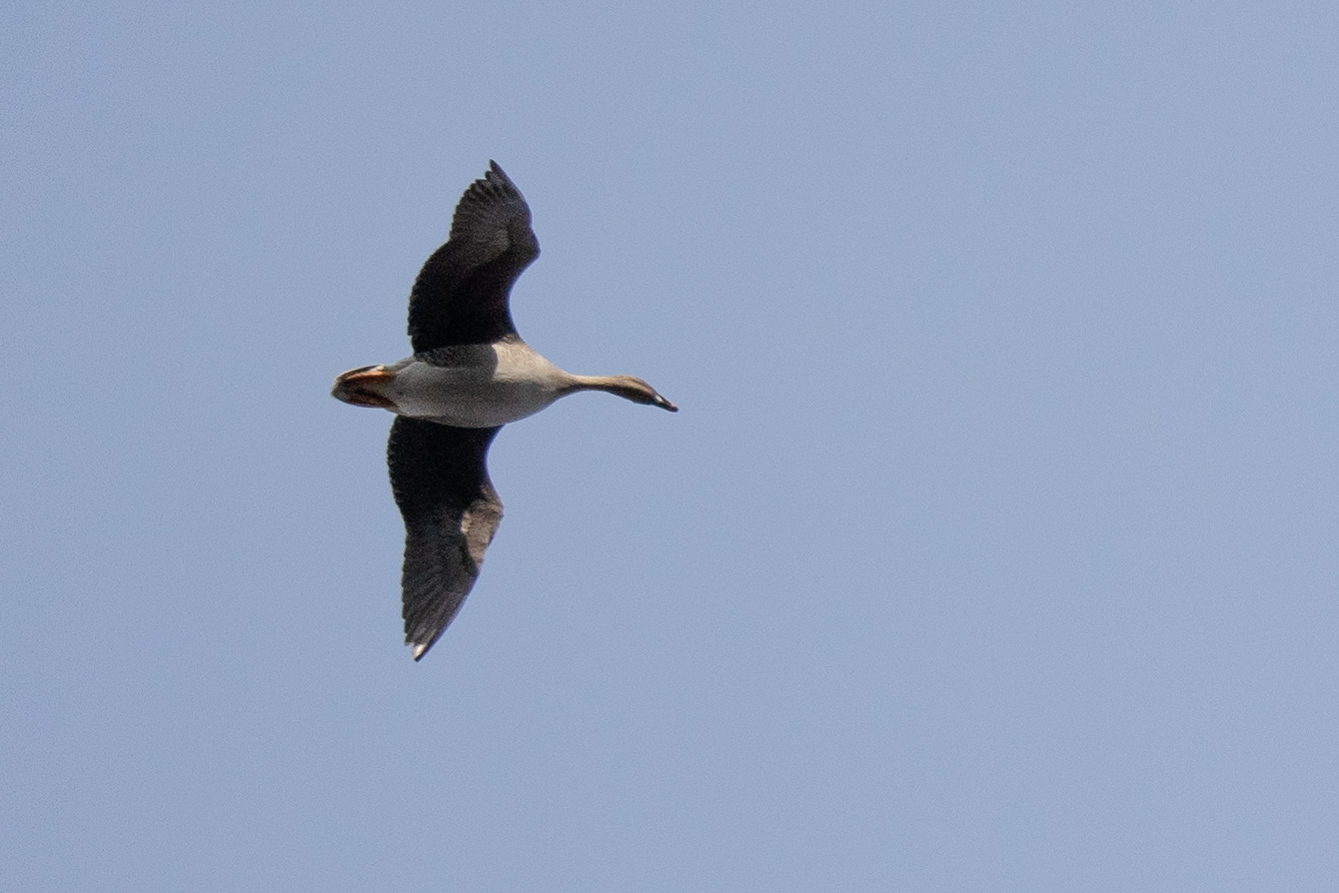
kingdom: Animalia
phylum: Chordata
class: Aves
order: Anseriformes
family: Anatidae
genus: Anser
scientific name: Anser fabalis
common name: Bean goose
